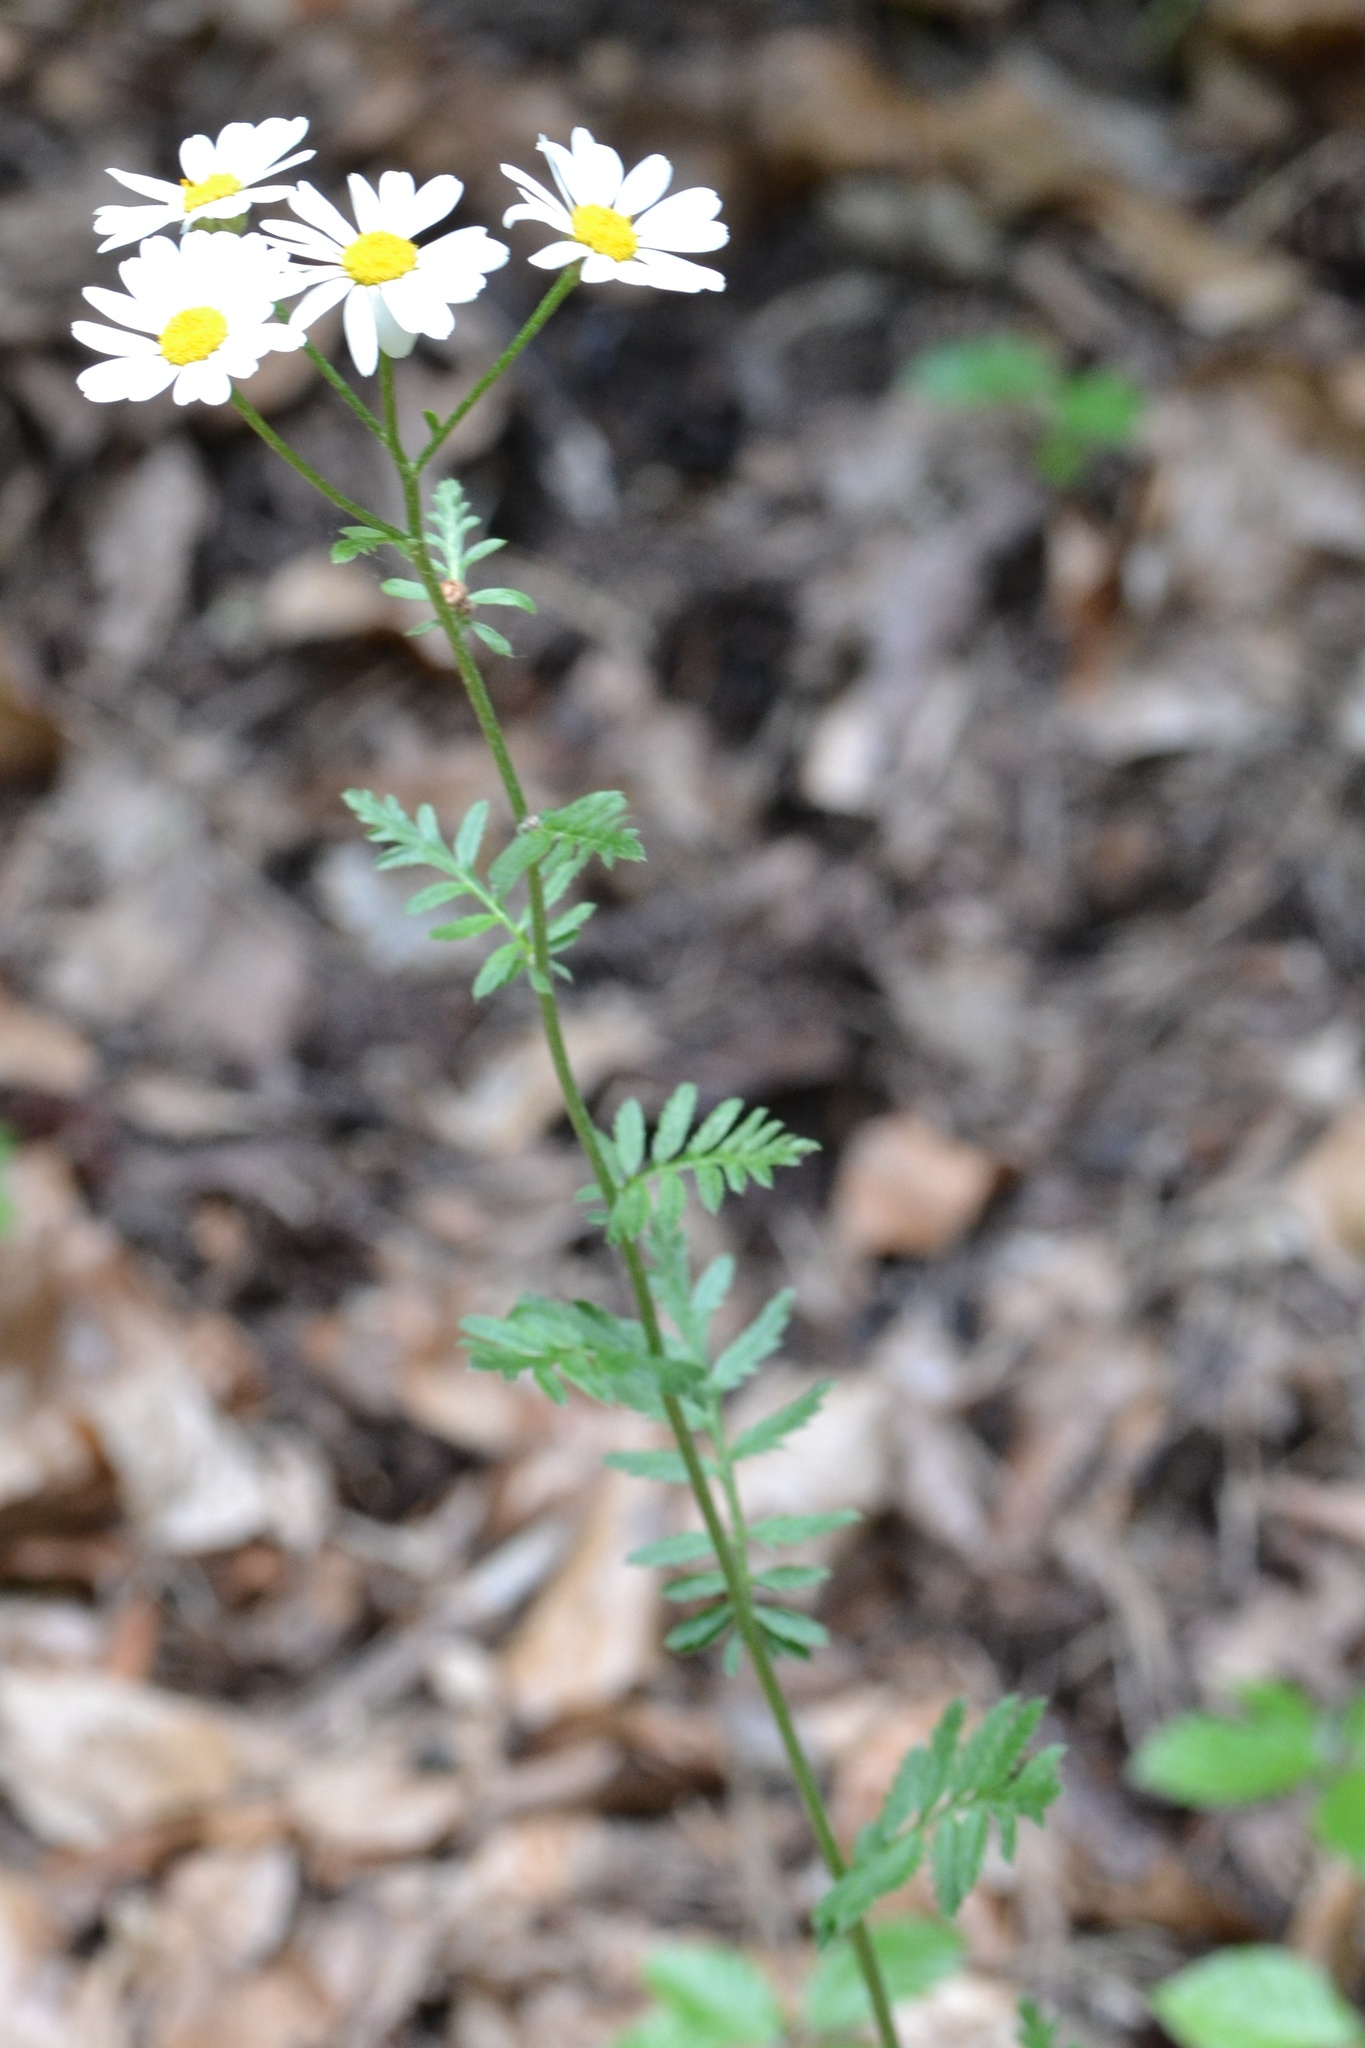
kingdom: Plantae
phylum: Tracheophyta
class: Magnoliopsida
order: Asterales
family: Asteraceae
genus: Tanacetum
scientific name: Tanacetum corymbosum
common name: Scentless feverfew
